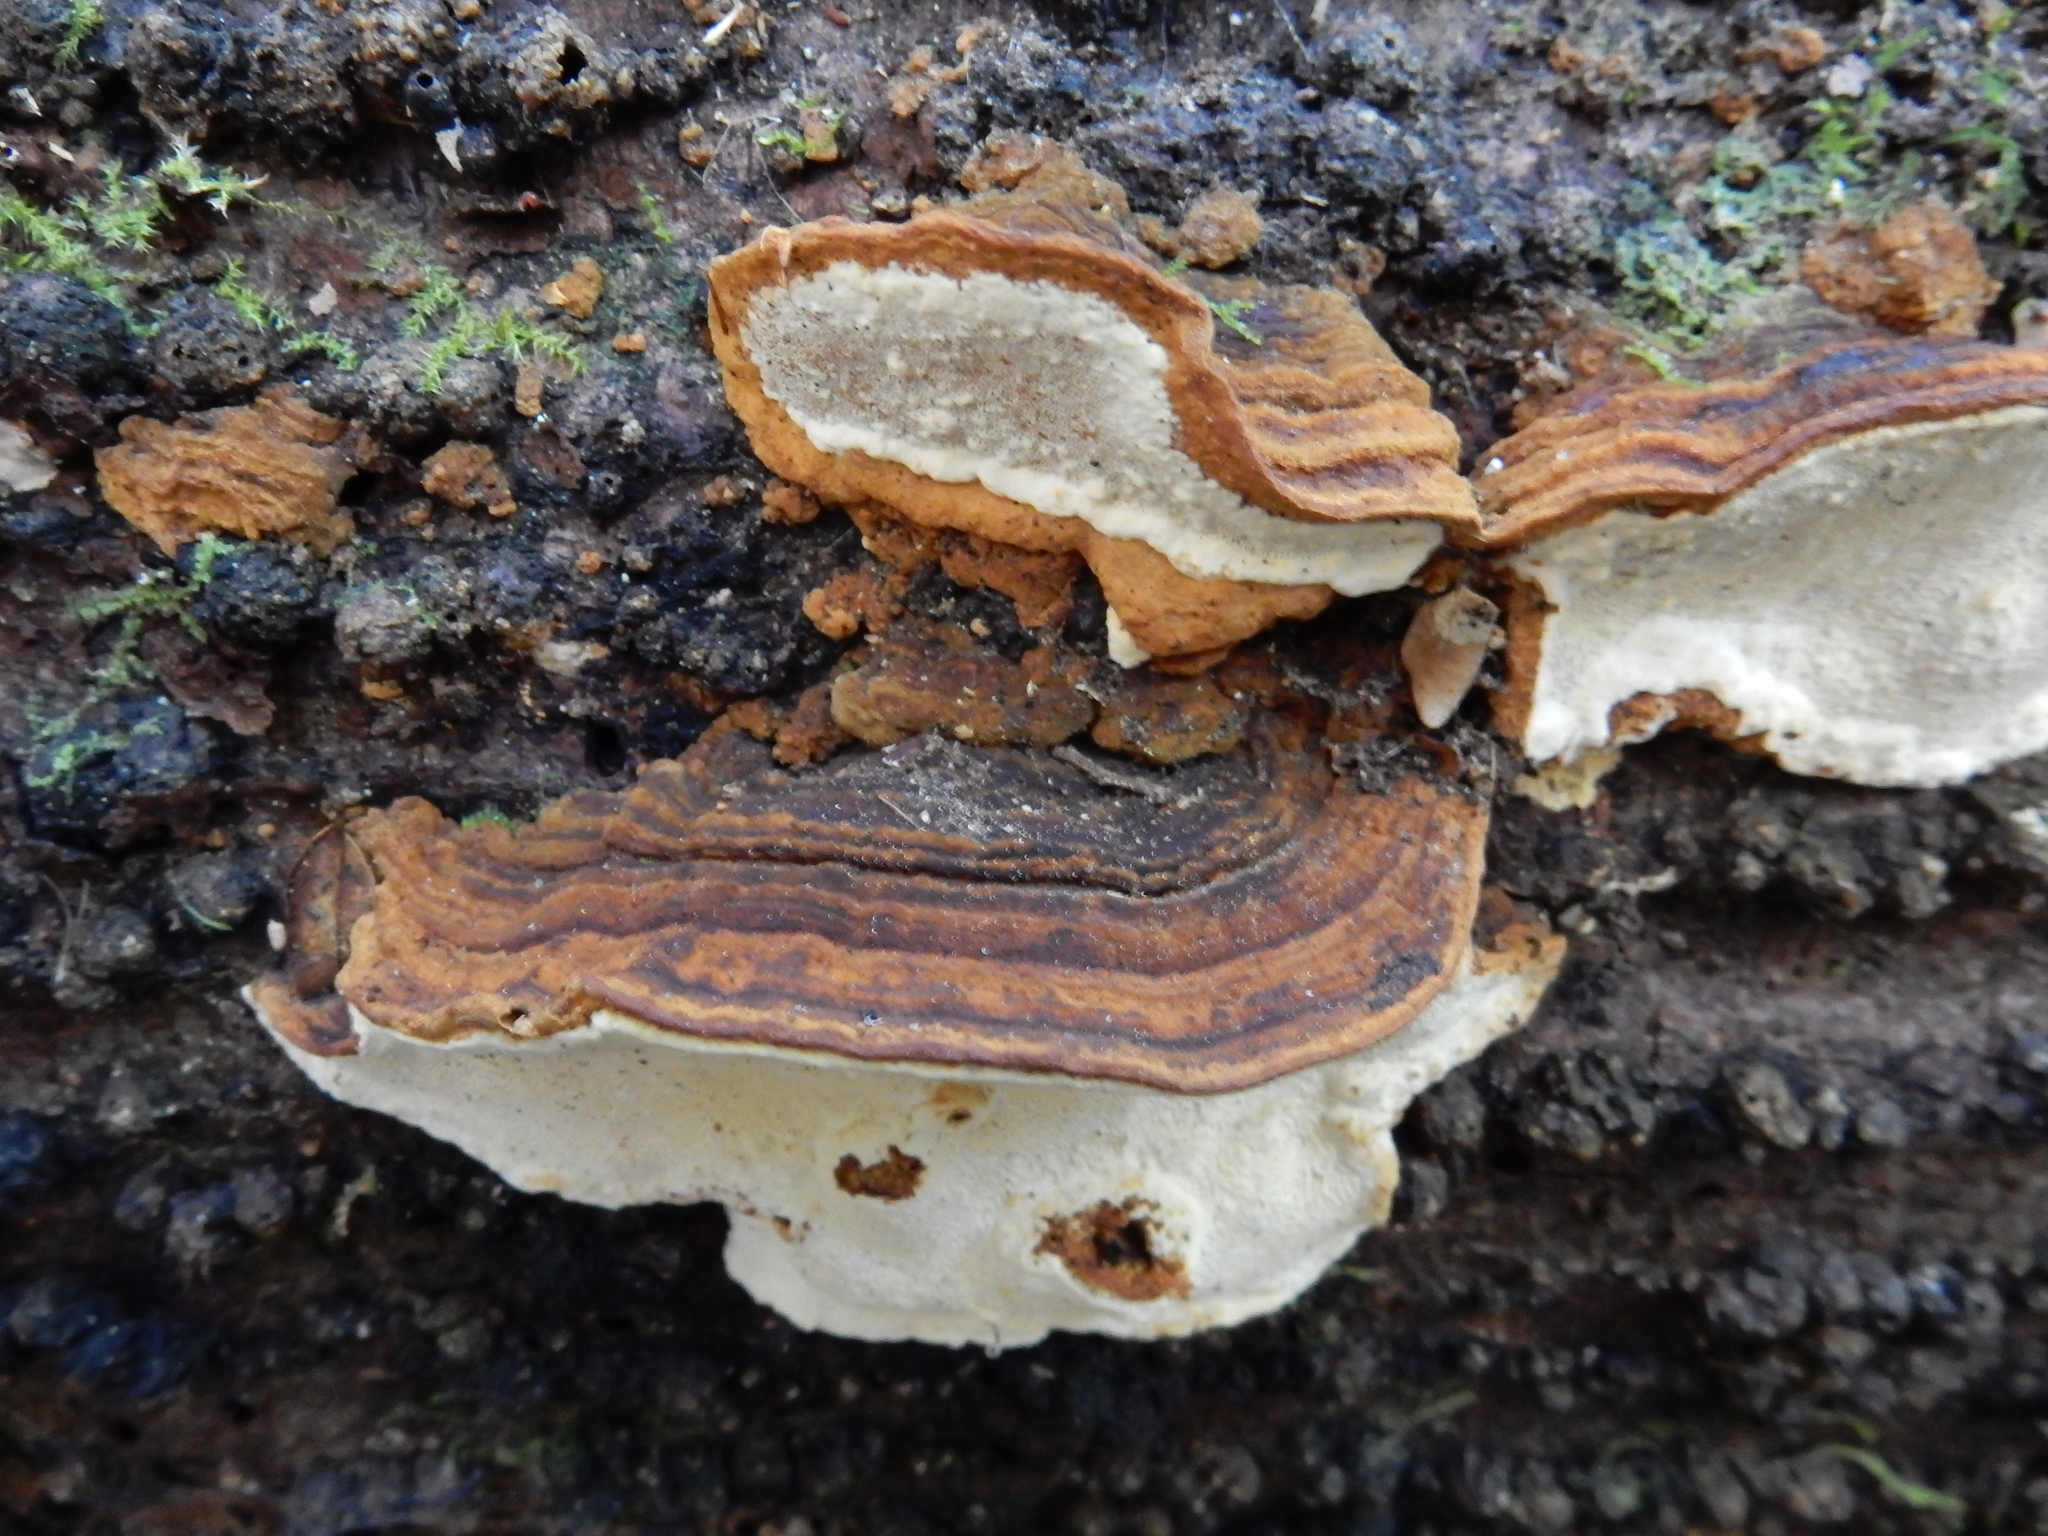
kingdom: Fungi
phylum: Basidiomycota
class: Agaricomycetes
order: Polyporales
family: Polyporaceae
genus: Australoporus
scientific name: Australoporus tasmanicus
